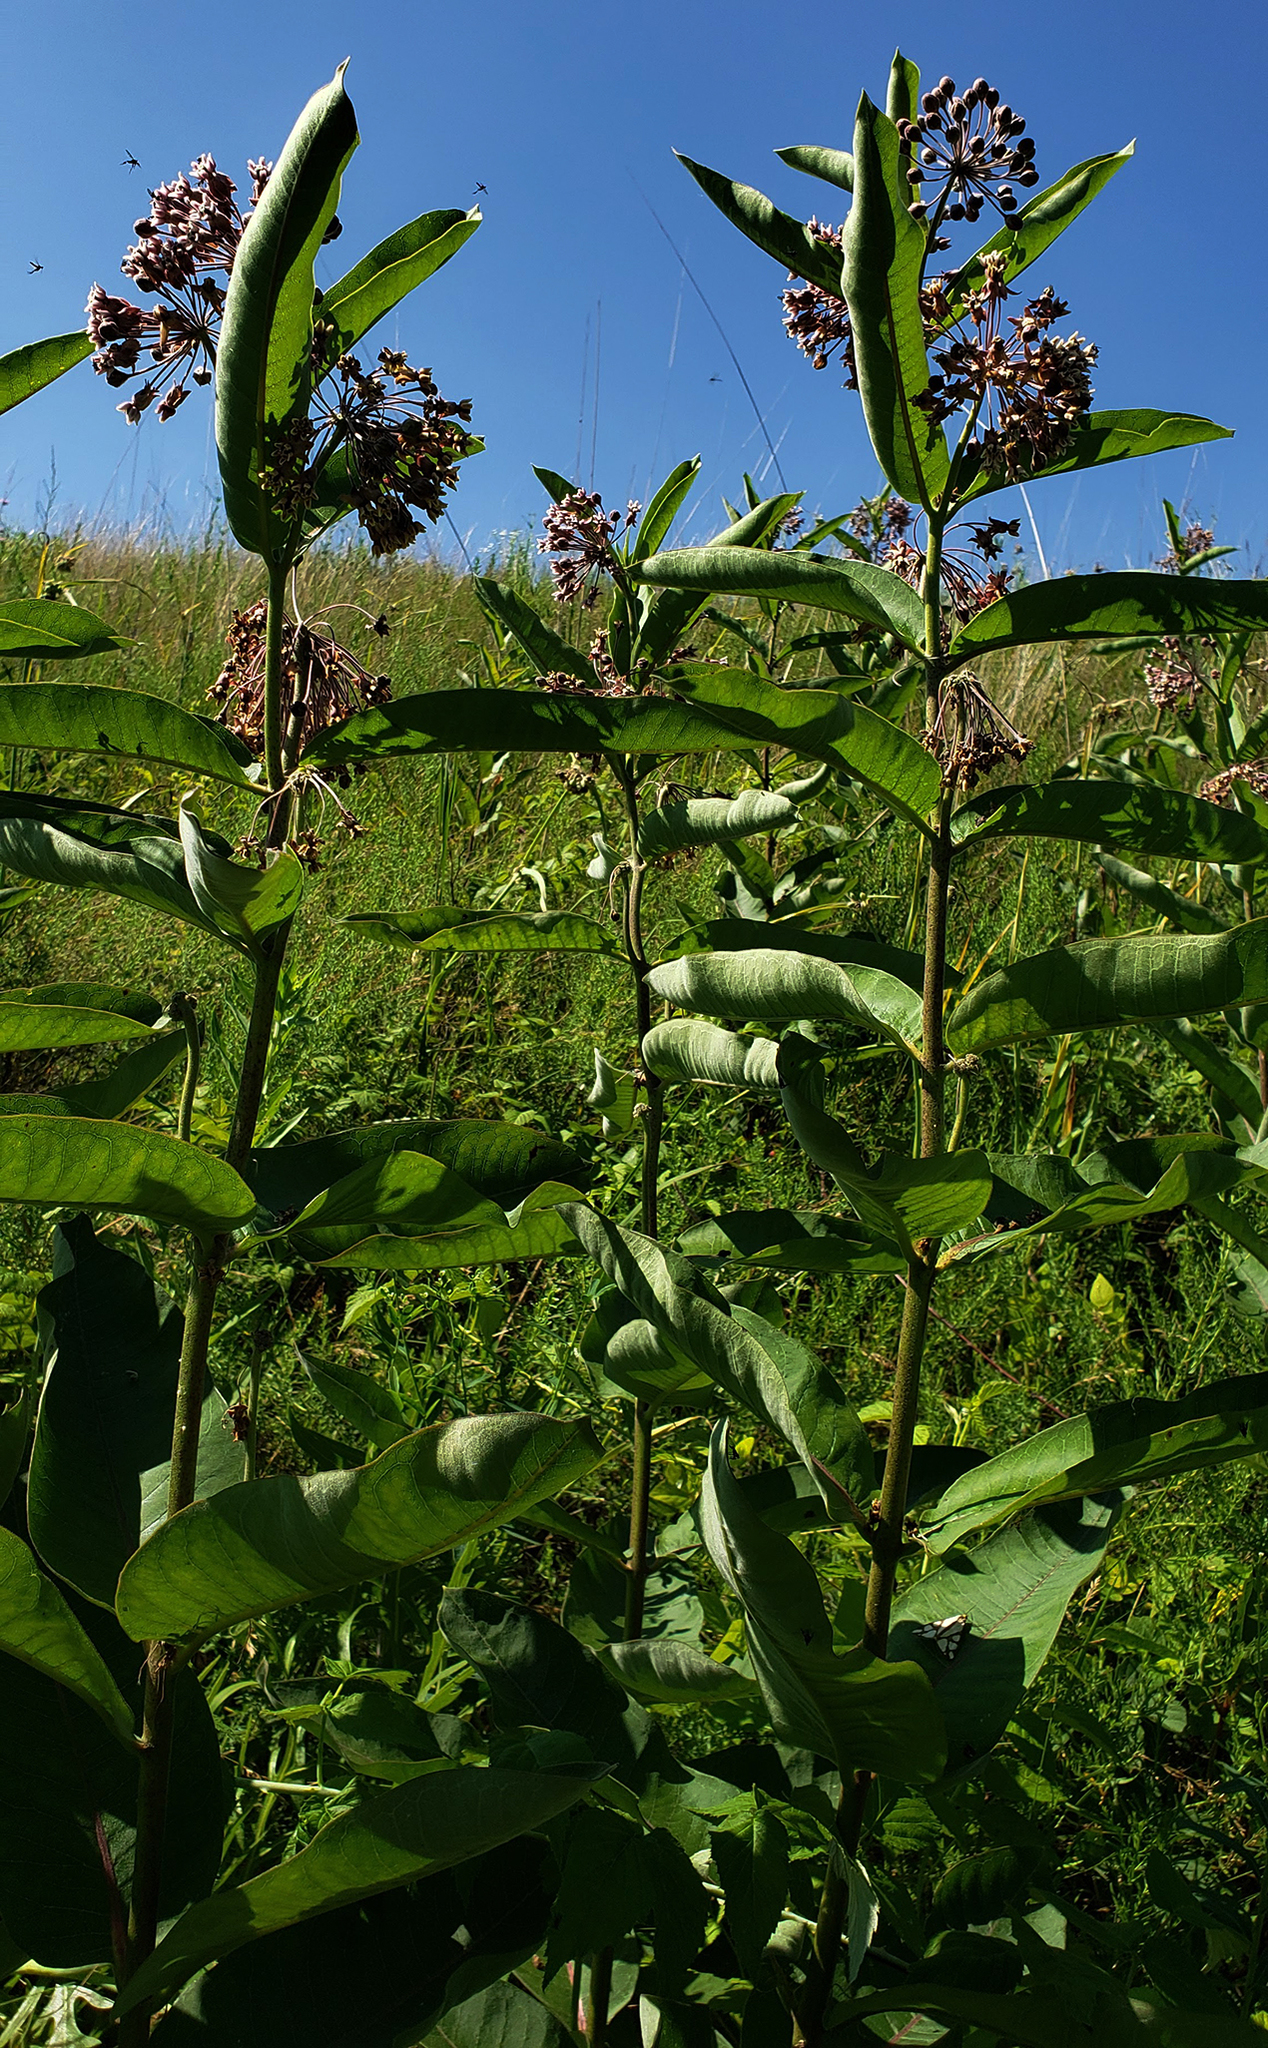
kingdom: Plantae
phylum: Tracheophyta
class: Magnoliopsida
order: Gentianales
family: Apocynaceae
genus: Asclepias
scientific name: Asclepias syriaca
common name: Common milkweed
